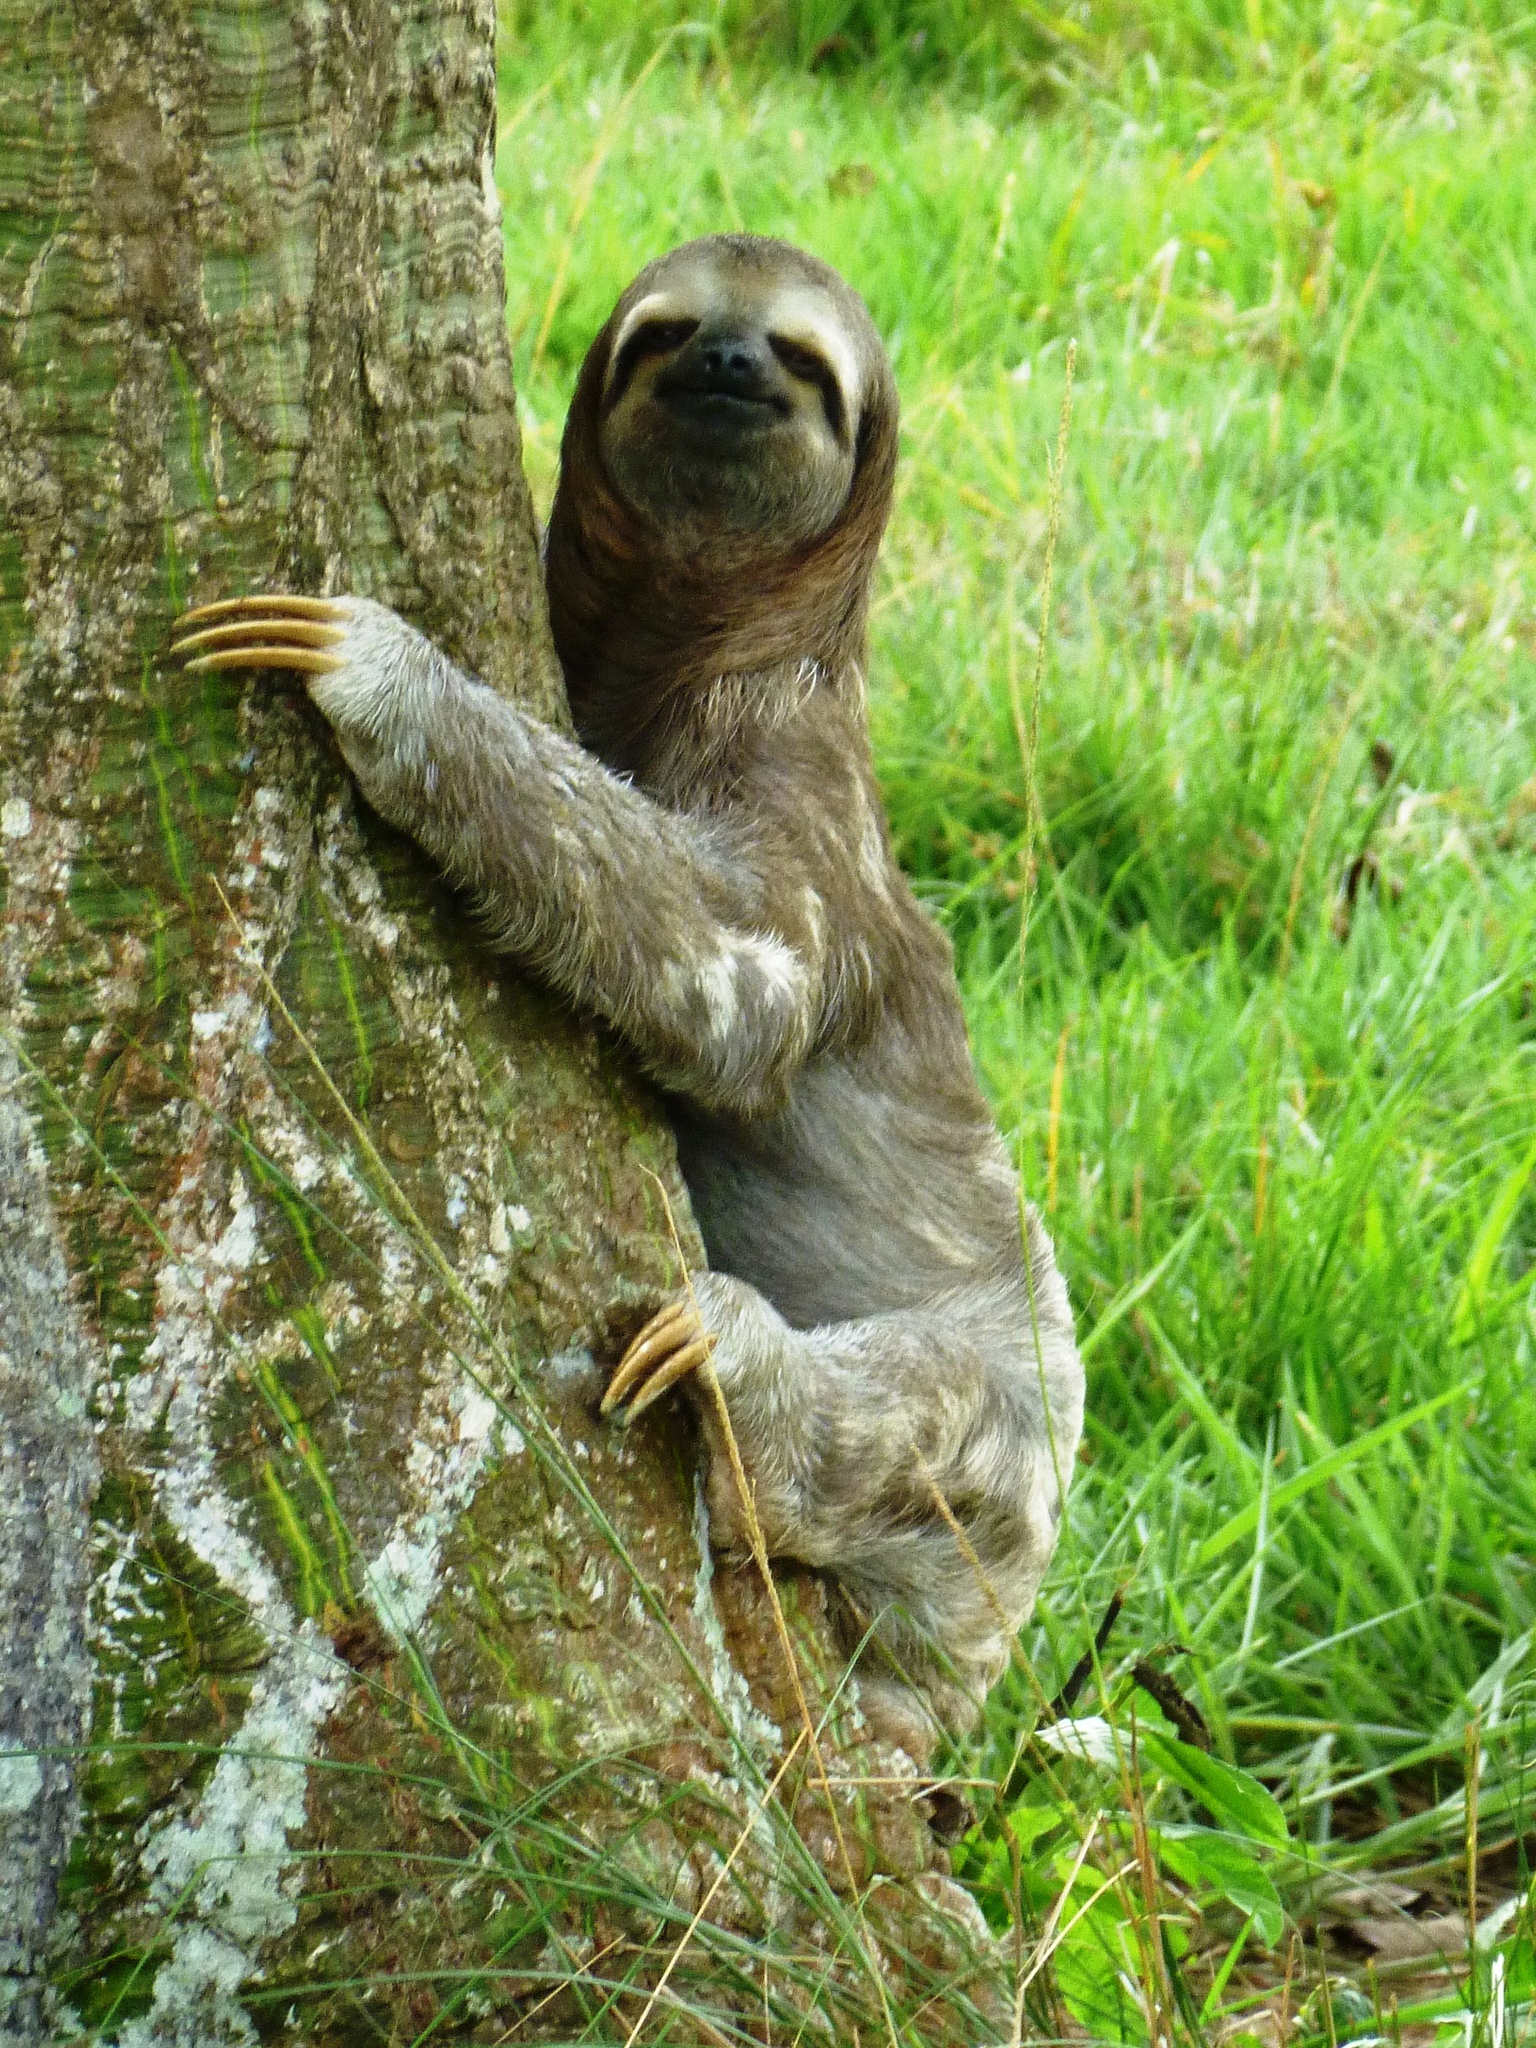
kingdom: Animalia
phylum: Chordata
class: Mammalia
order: Pilosa
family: Bradypodidae
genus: Bradypus
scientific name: Bradypus variegatus
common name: Brown-throated three-toed sloth
